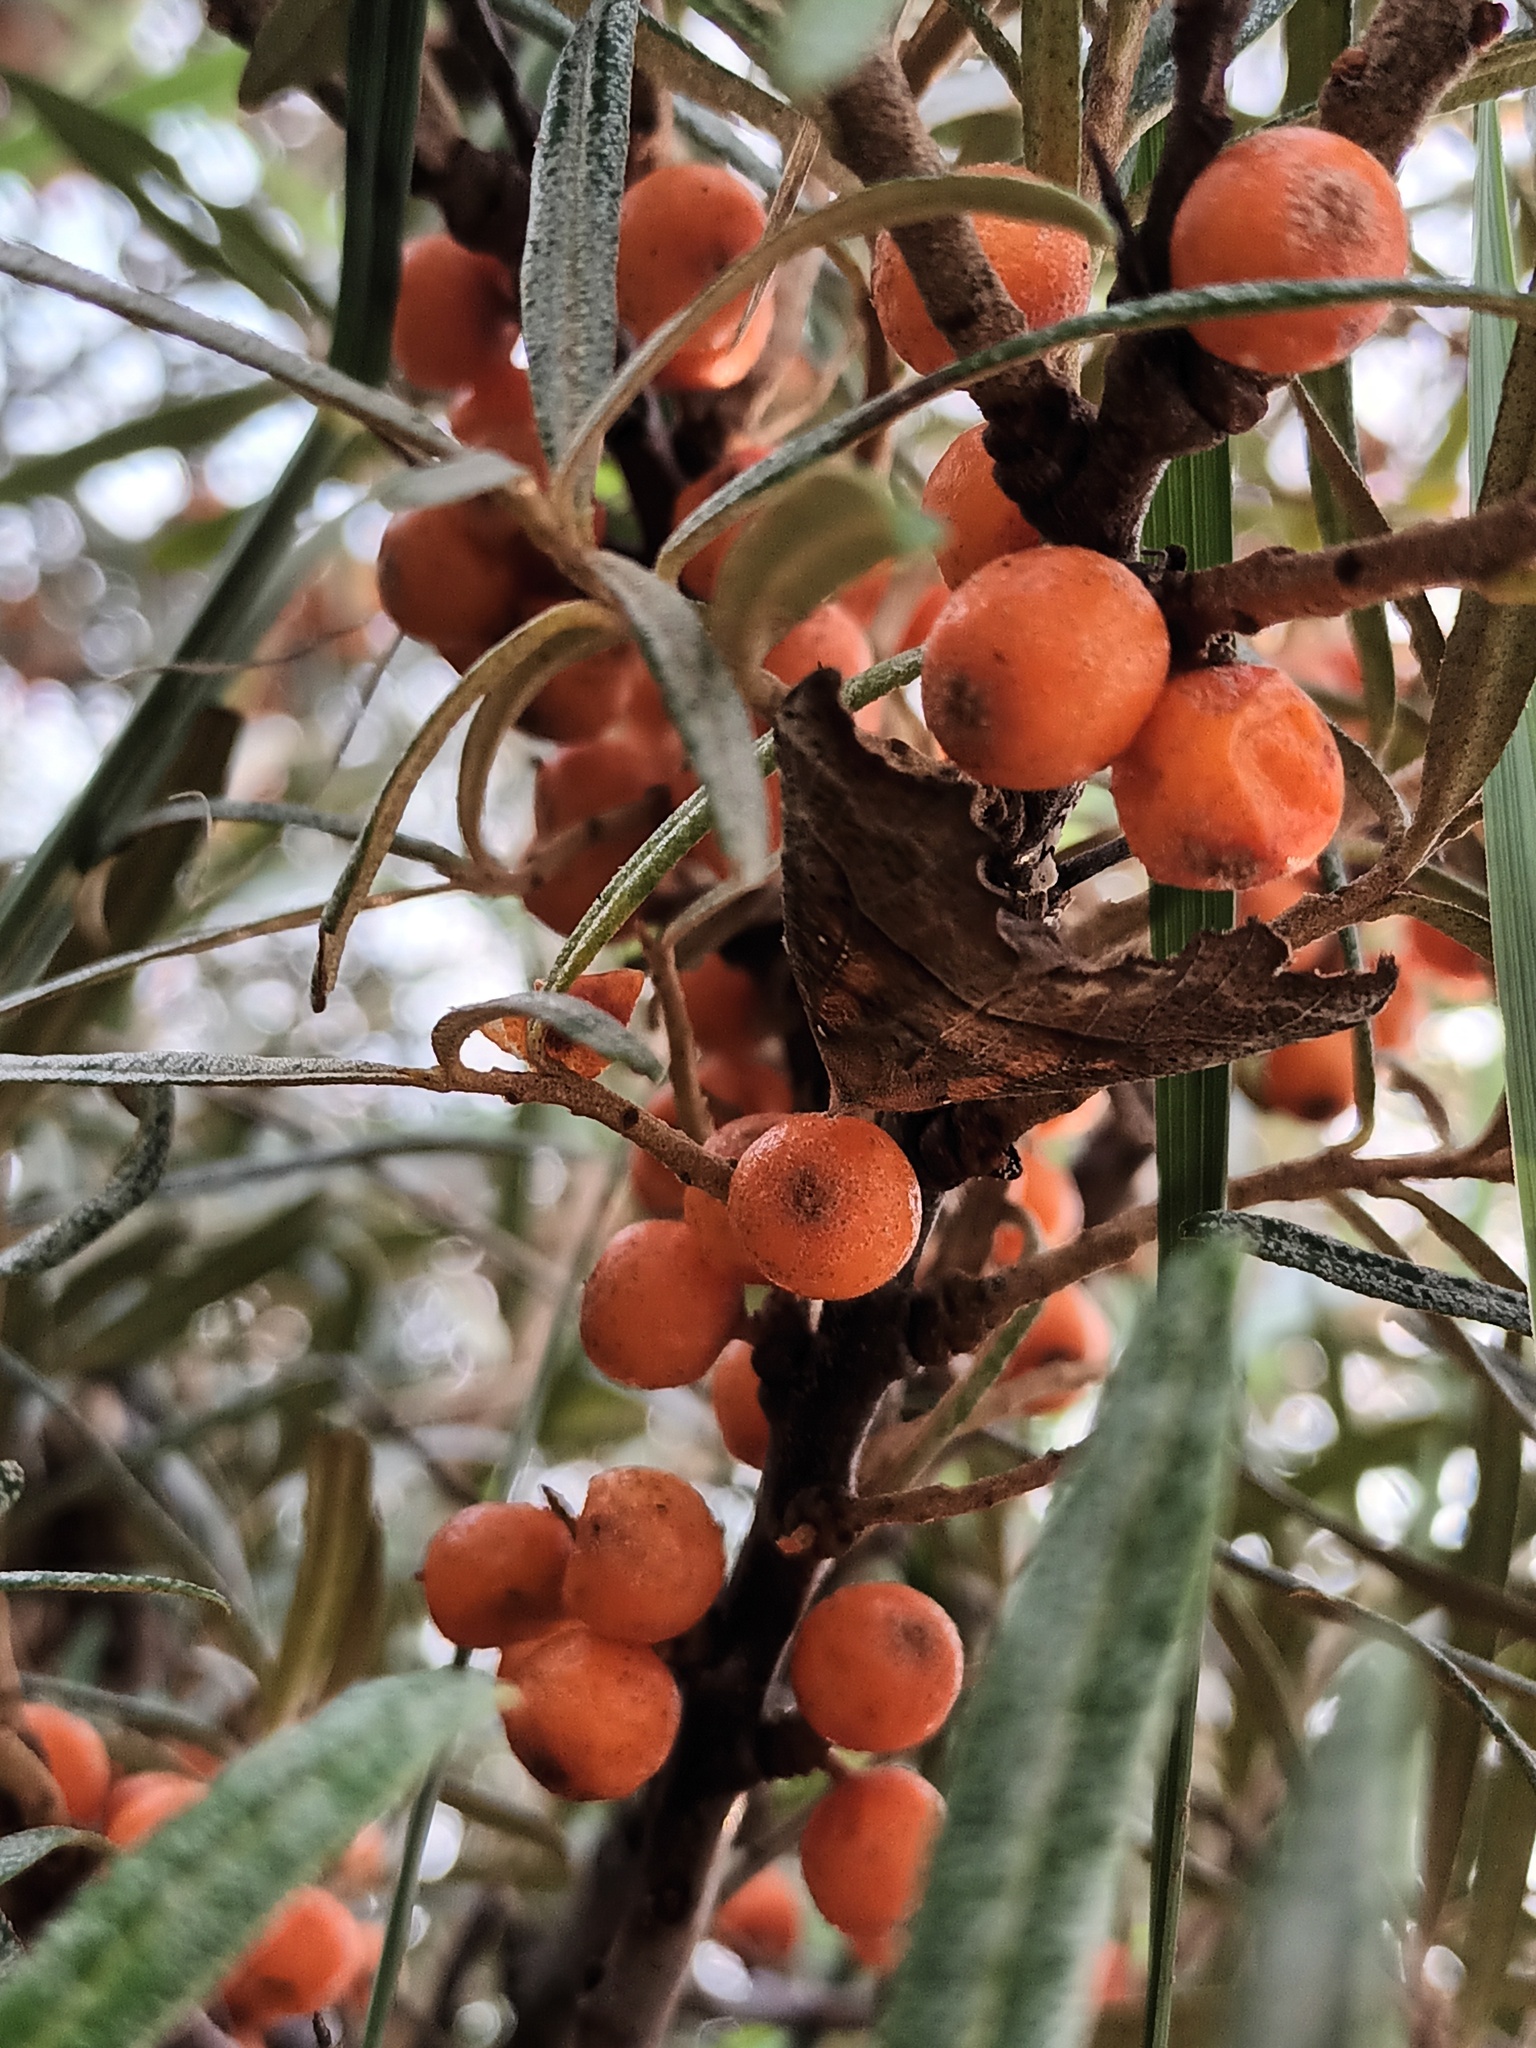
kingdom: Animalia
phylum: Arthropoda
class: Insecta
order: Lepidoptera
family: Erebidae
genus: Scoliopteryx
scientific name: Scoliopteryx libatrix
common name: Herald
